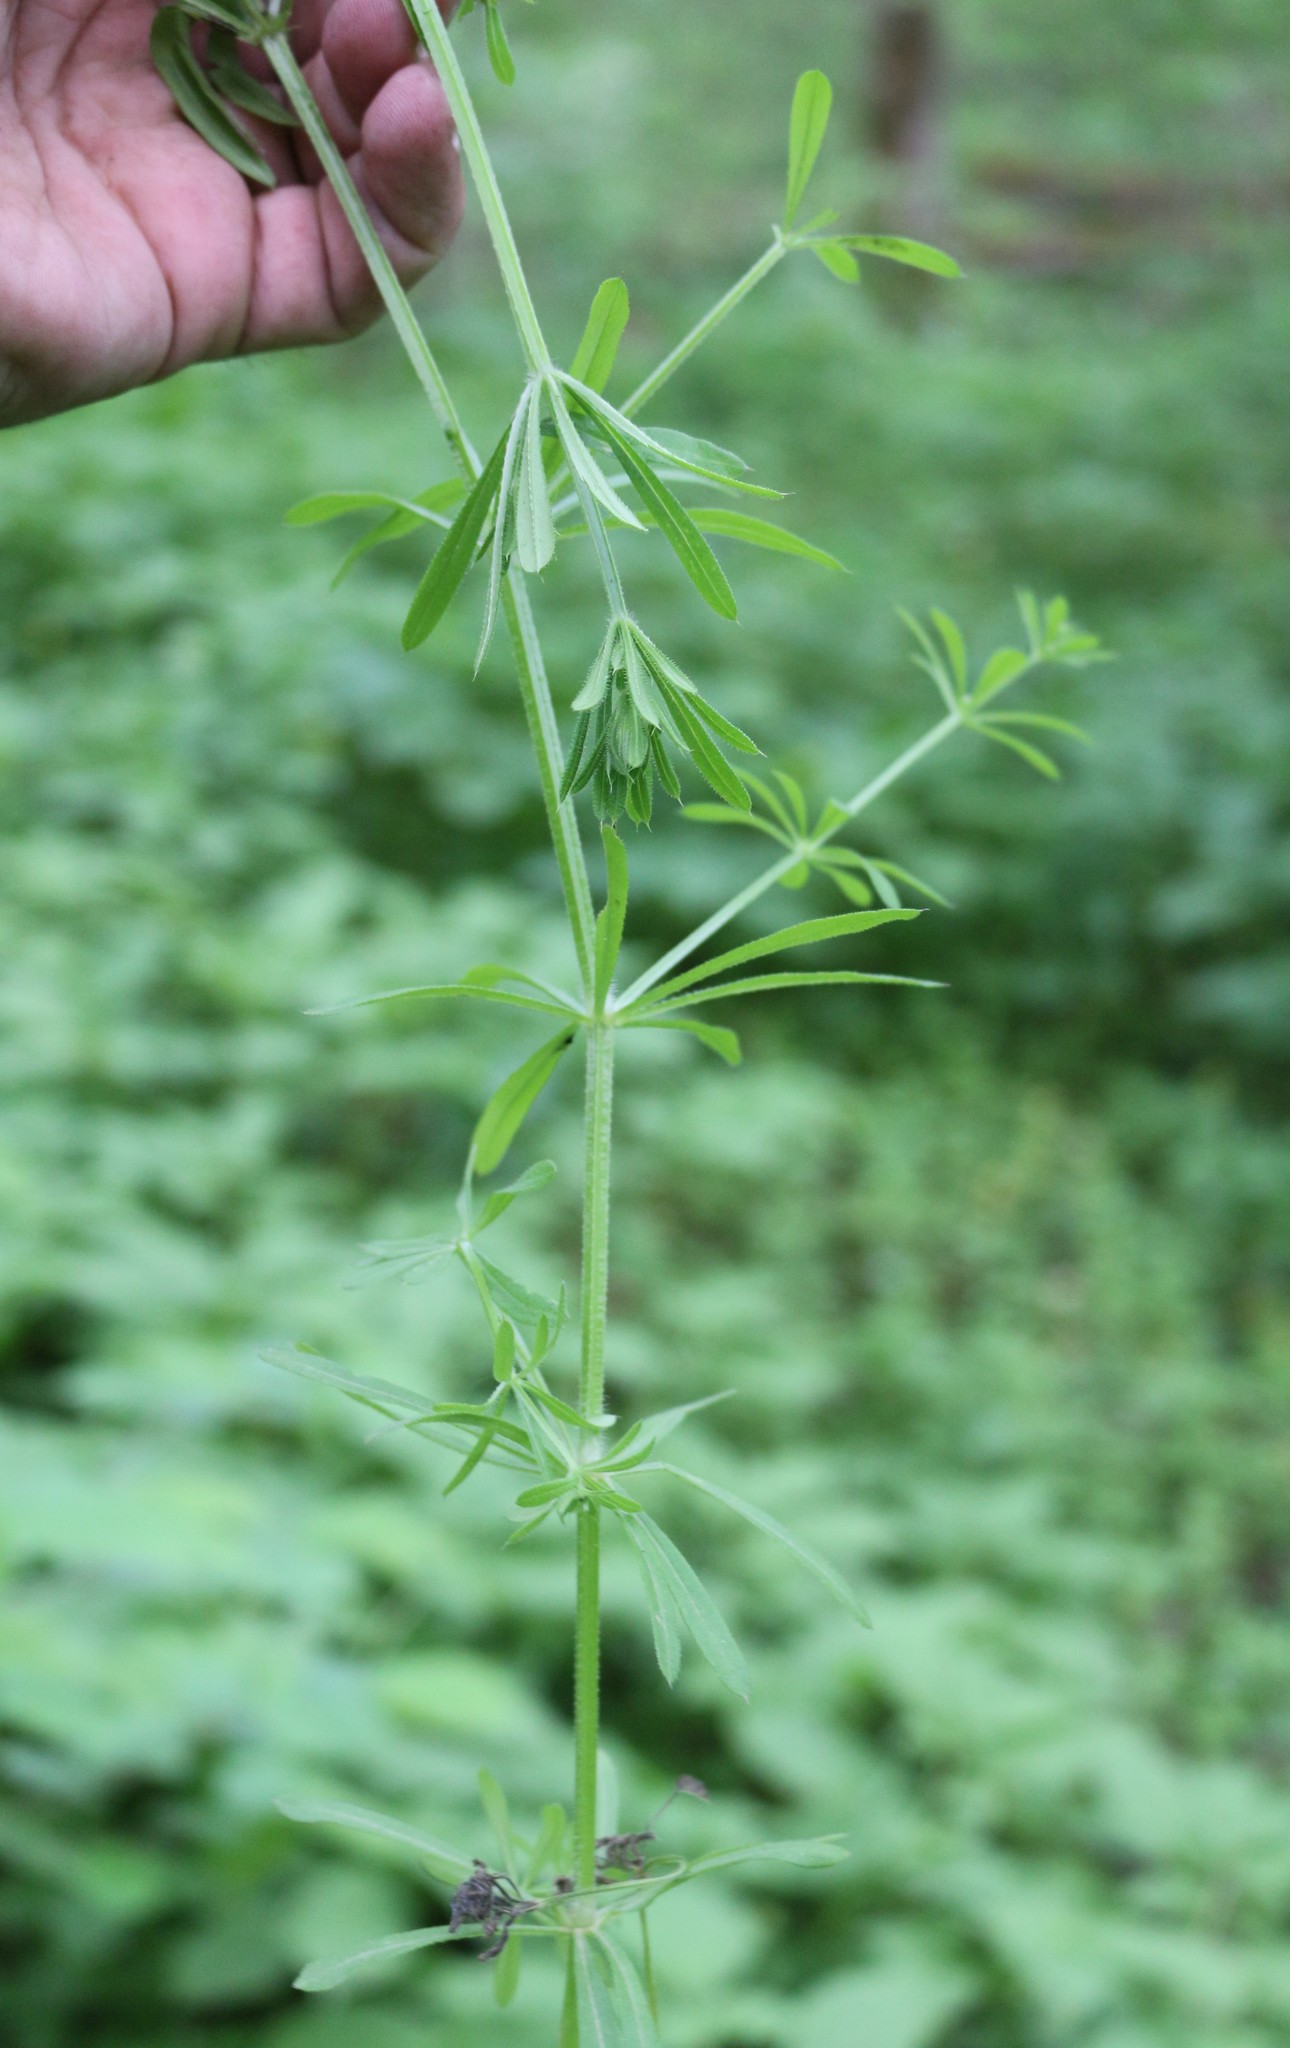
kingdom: Plantae
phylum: Tracheophyta
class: Magnoliopsida
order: Gentianales
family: Rubiaceae
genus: Galium
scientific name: Galium aparine
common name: Cleavers
